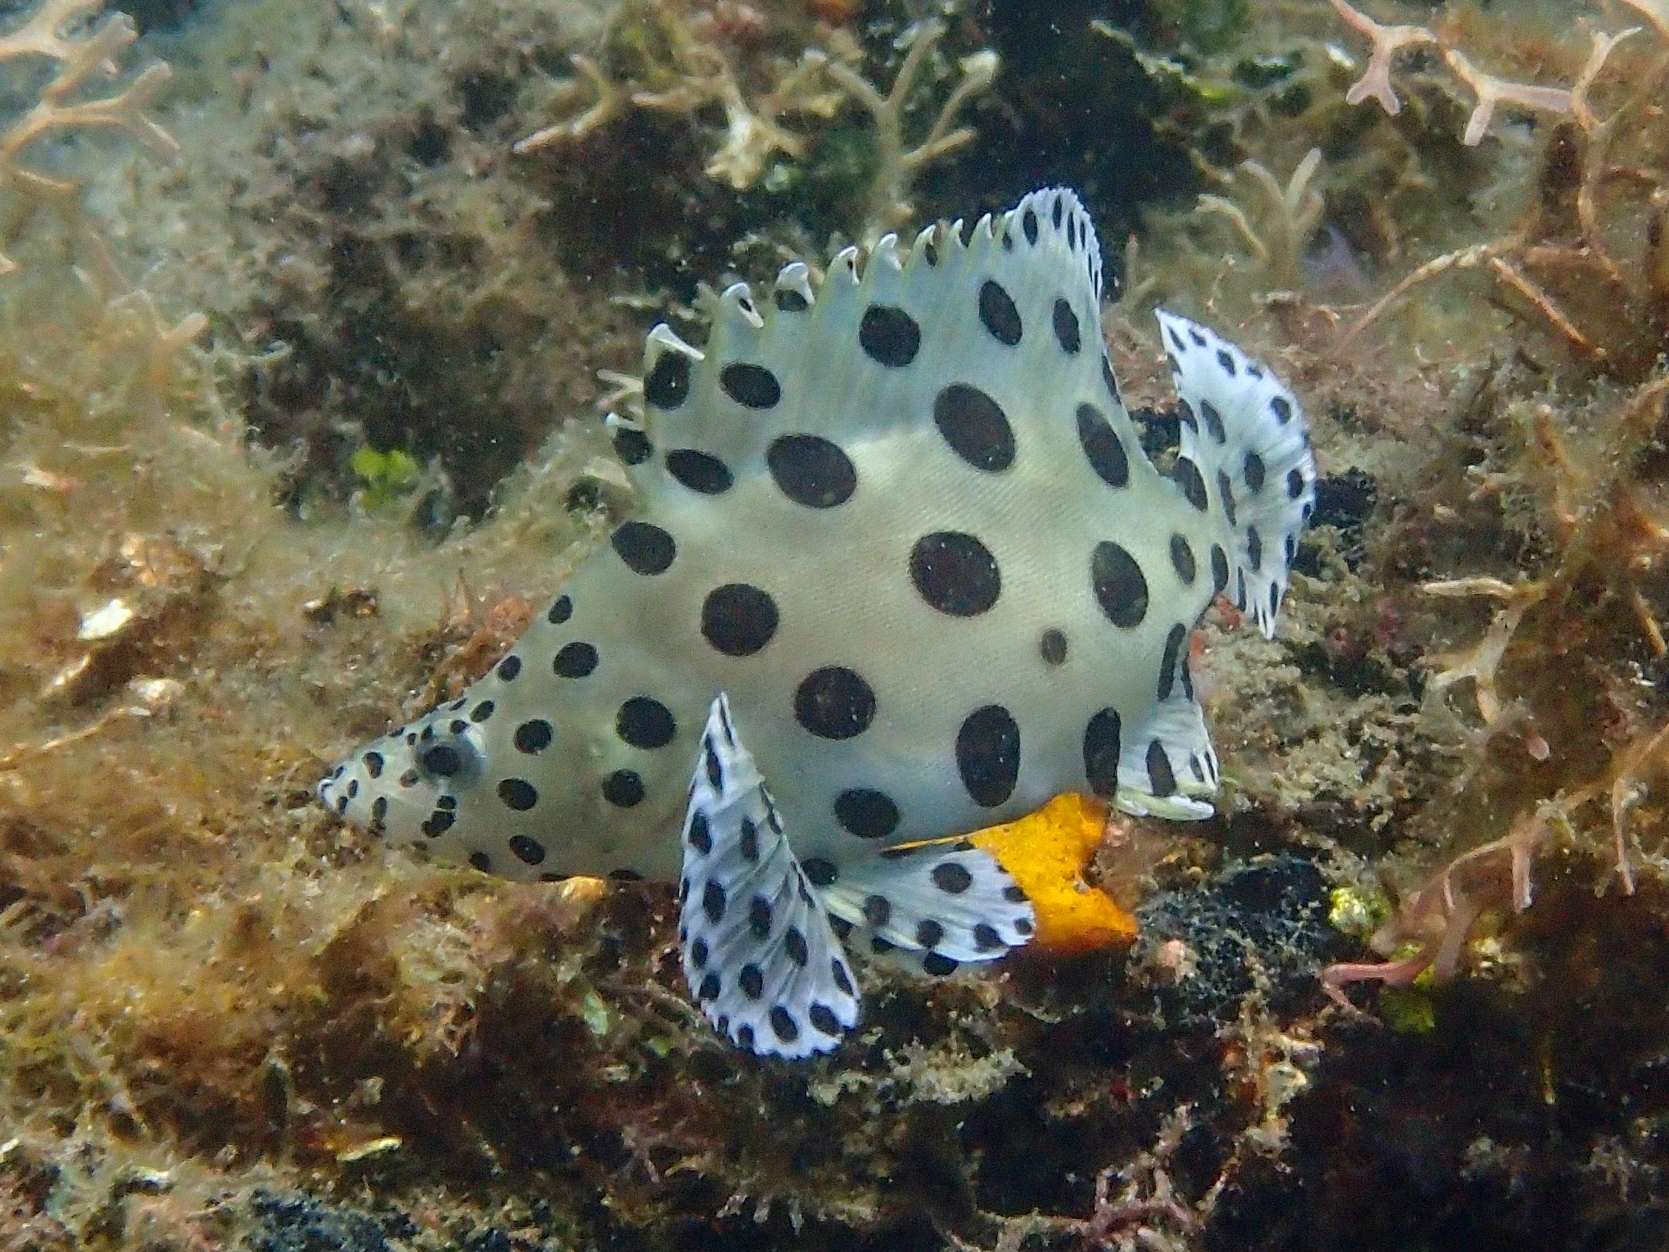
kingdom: Animalia
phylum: Chordata
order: Perciformes
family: Serranidae
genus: Cromileptes
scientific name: Cromileptes altivelis
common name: Humpback grouper
